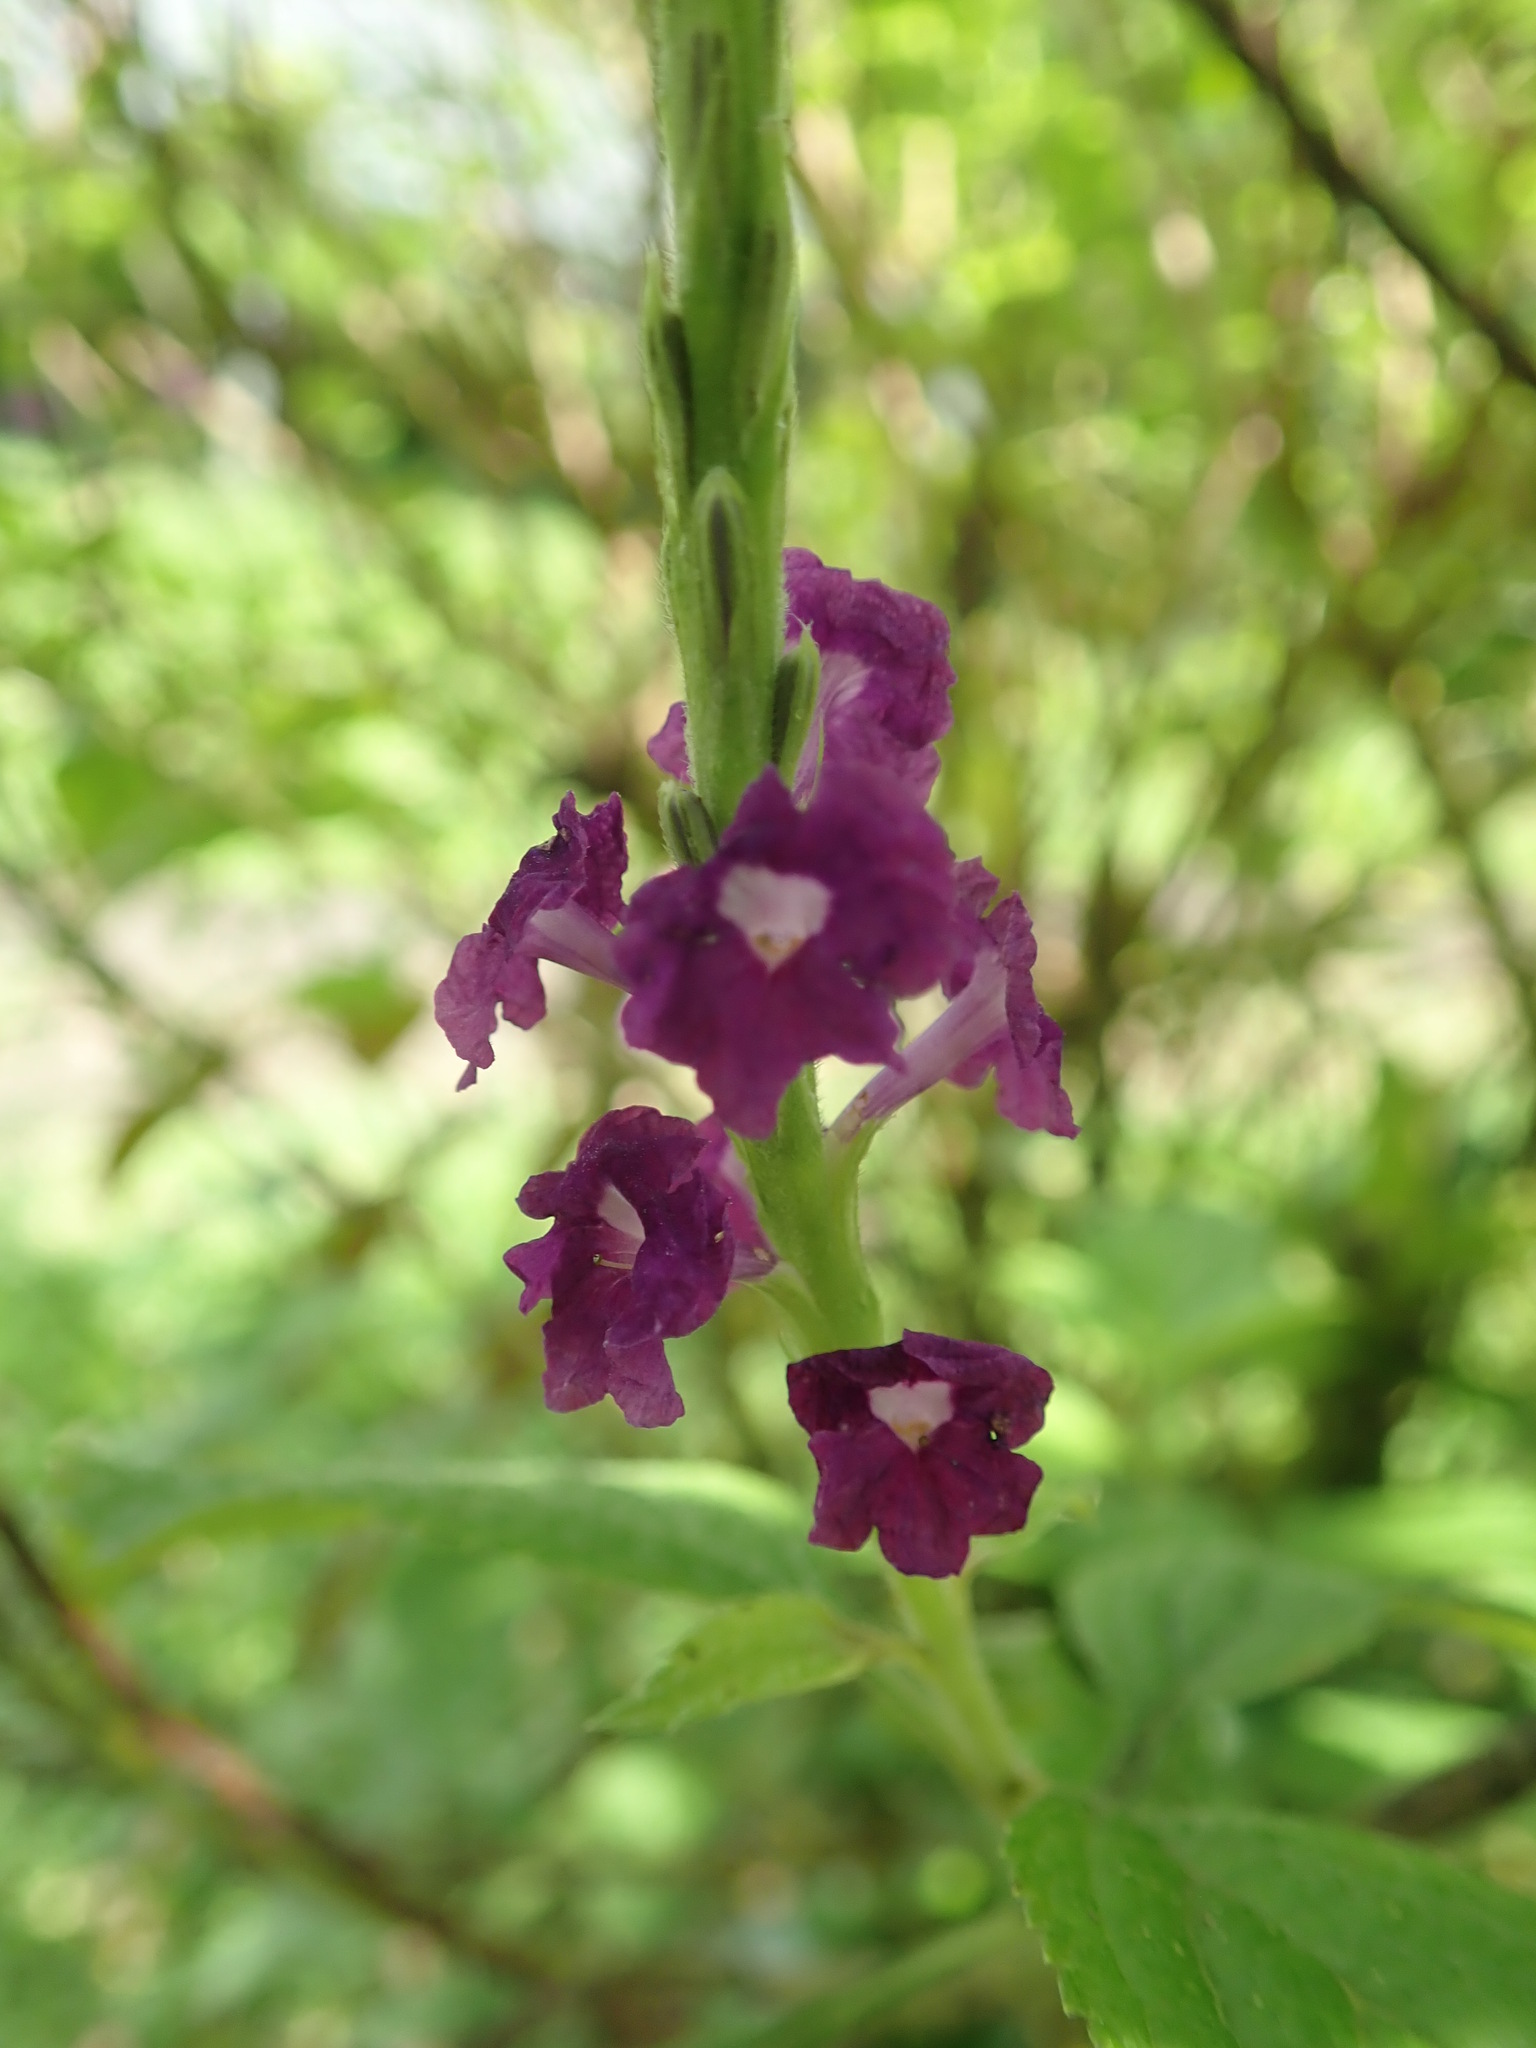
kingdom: Plantae
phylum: Tracheophyta
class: Magnoliopsida
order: Lamiales
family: Verbenaceae
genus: Stachytarpheta
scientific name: Stachytarpheta mutabilis
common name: Changeable velvetberry
